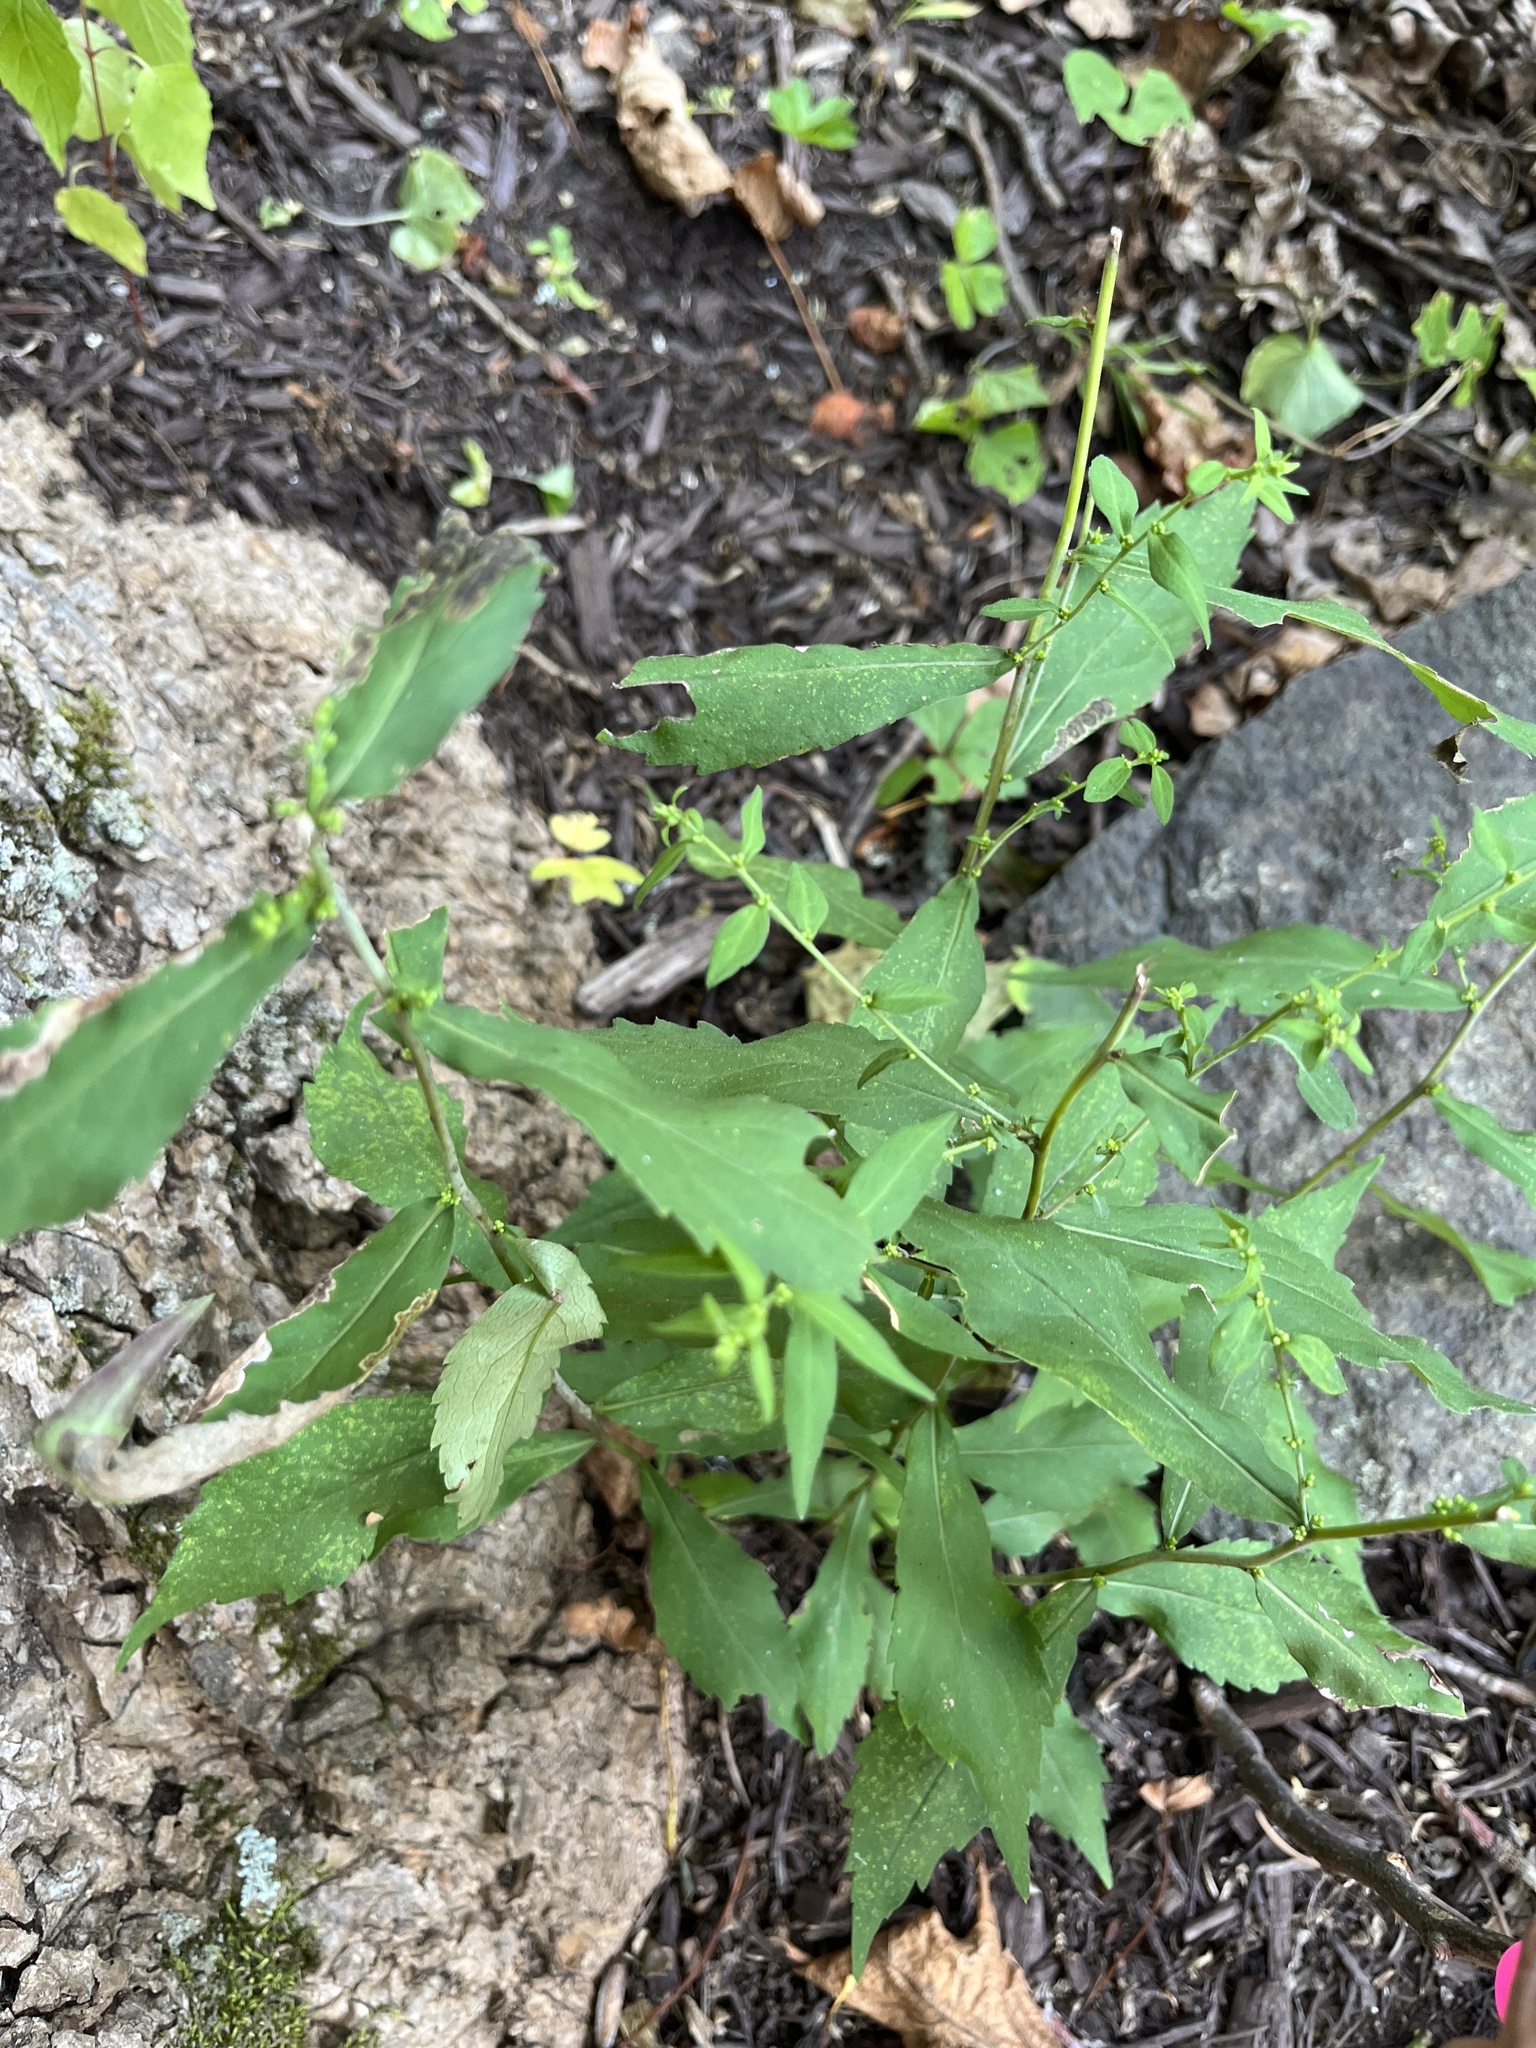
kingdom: Plantae
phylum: Tracheophyta
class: Magnoliopsida
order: Asterales
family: Asteraceae
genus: Solidago
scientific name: Solidago caesia
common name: Woodland goldenrod
